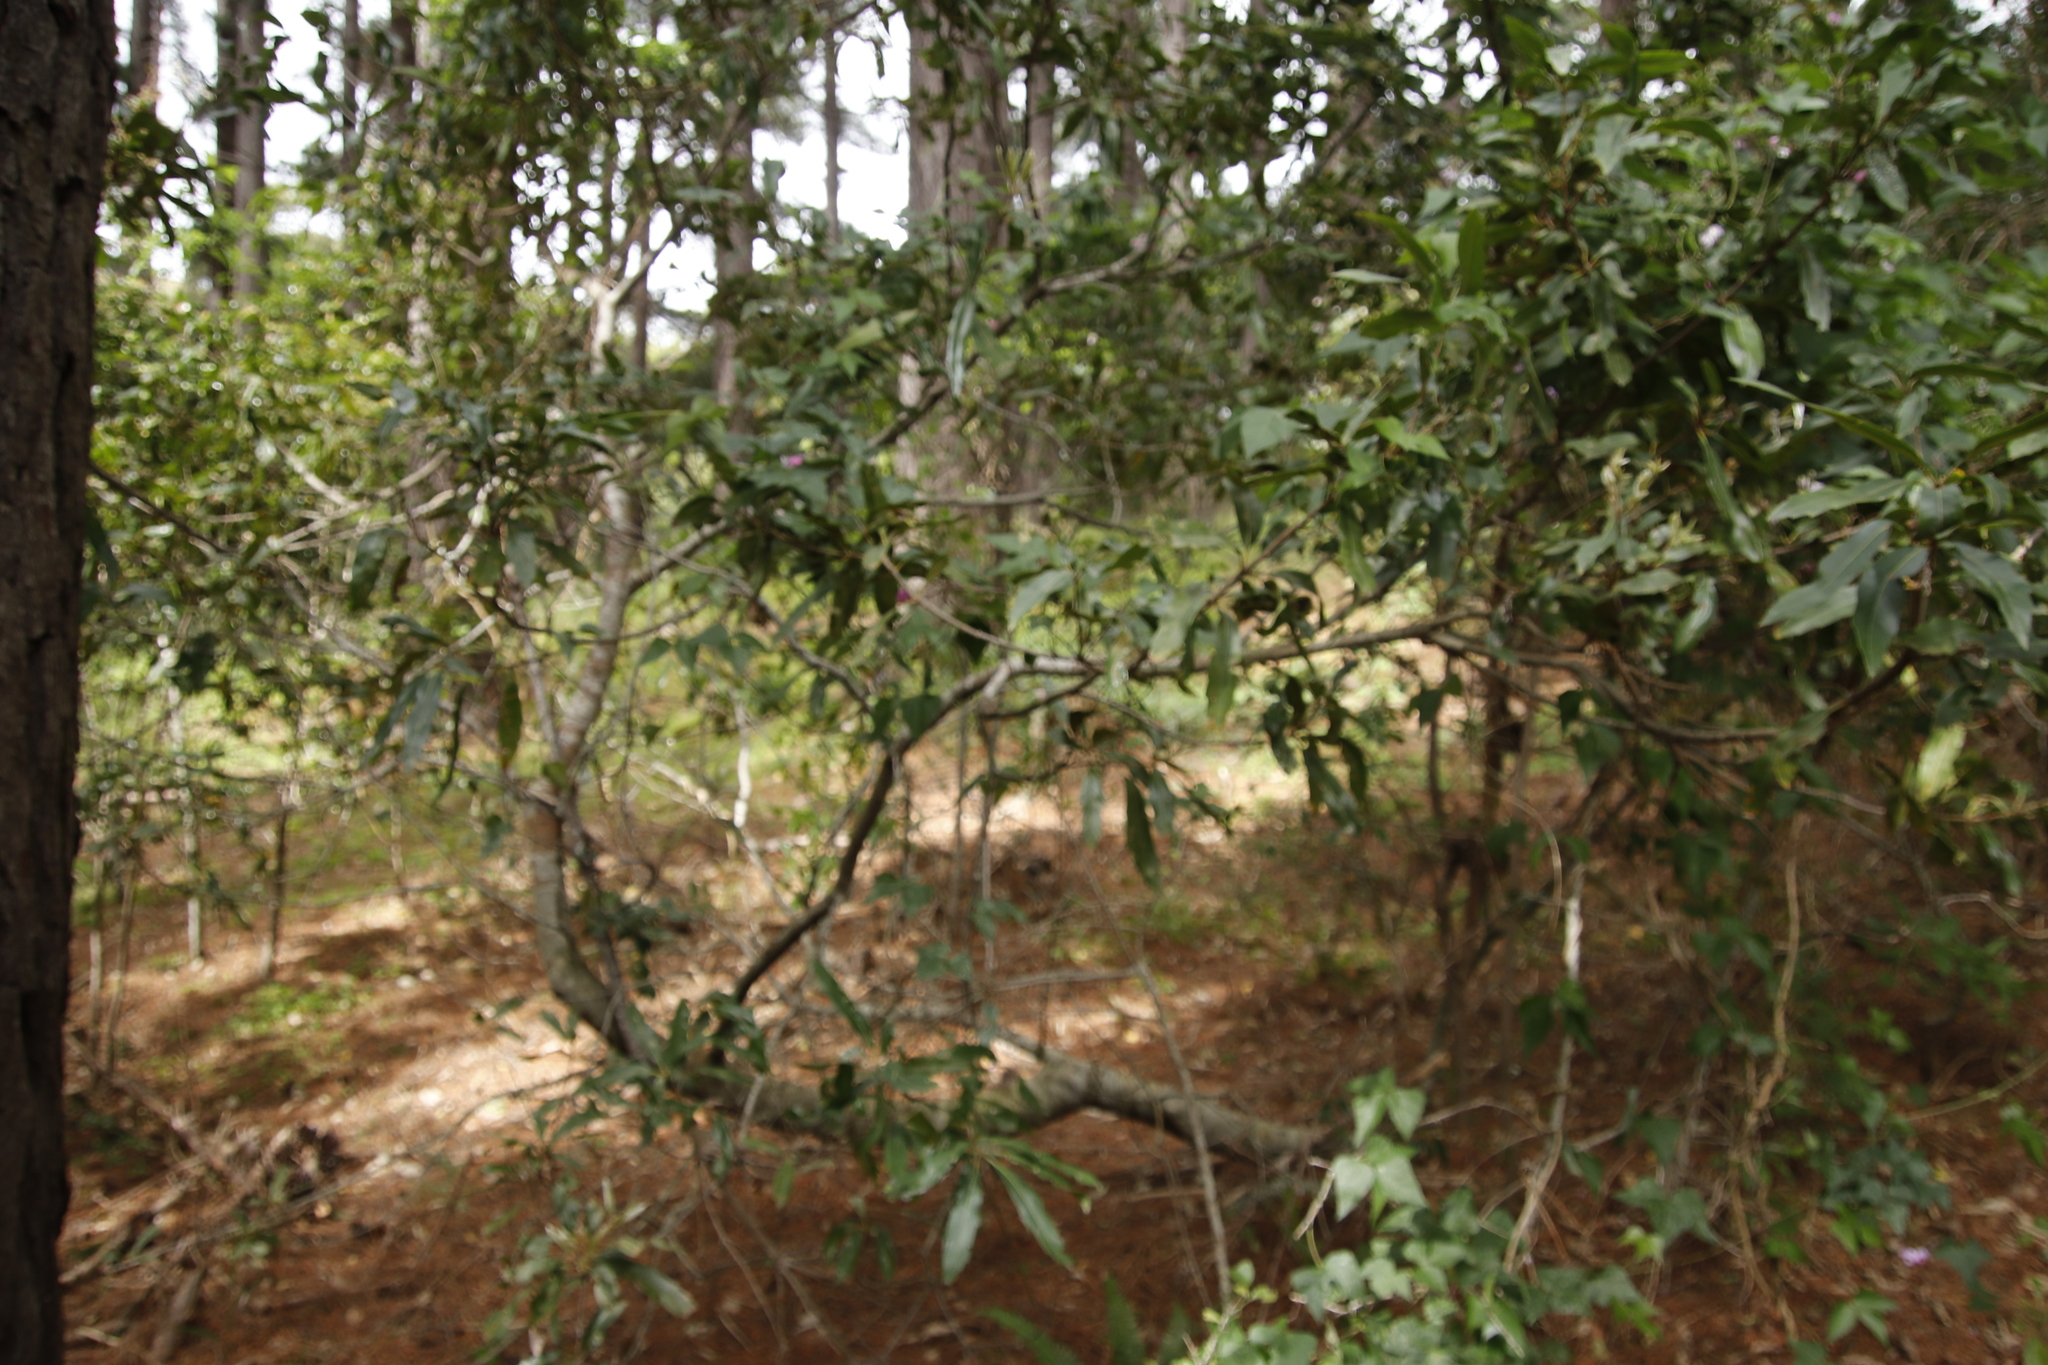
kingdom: Plantae
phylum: Tracheophyta
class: Magnoliopsida
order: Proteales
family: Proteaceae
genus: Brabejum
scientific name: Brabejum stellatifolium
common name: Wild almond
